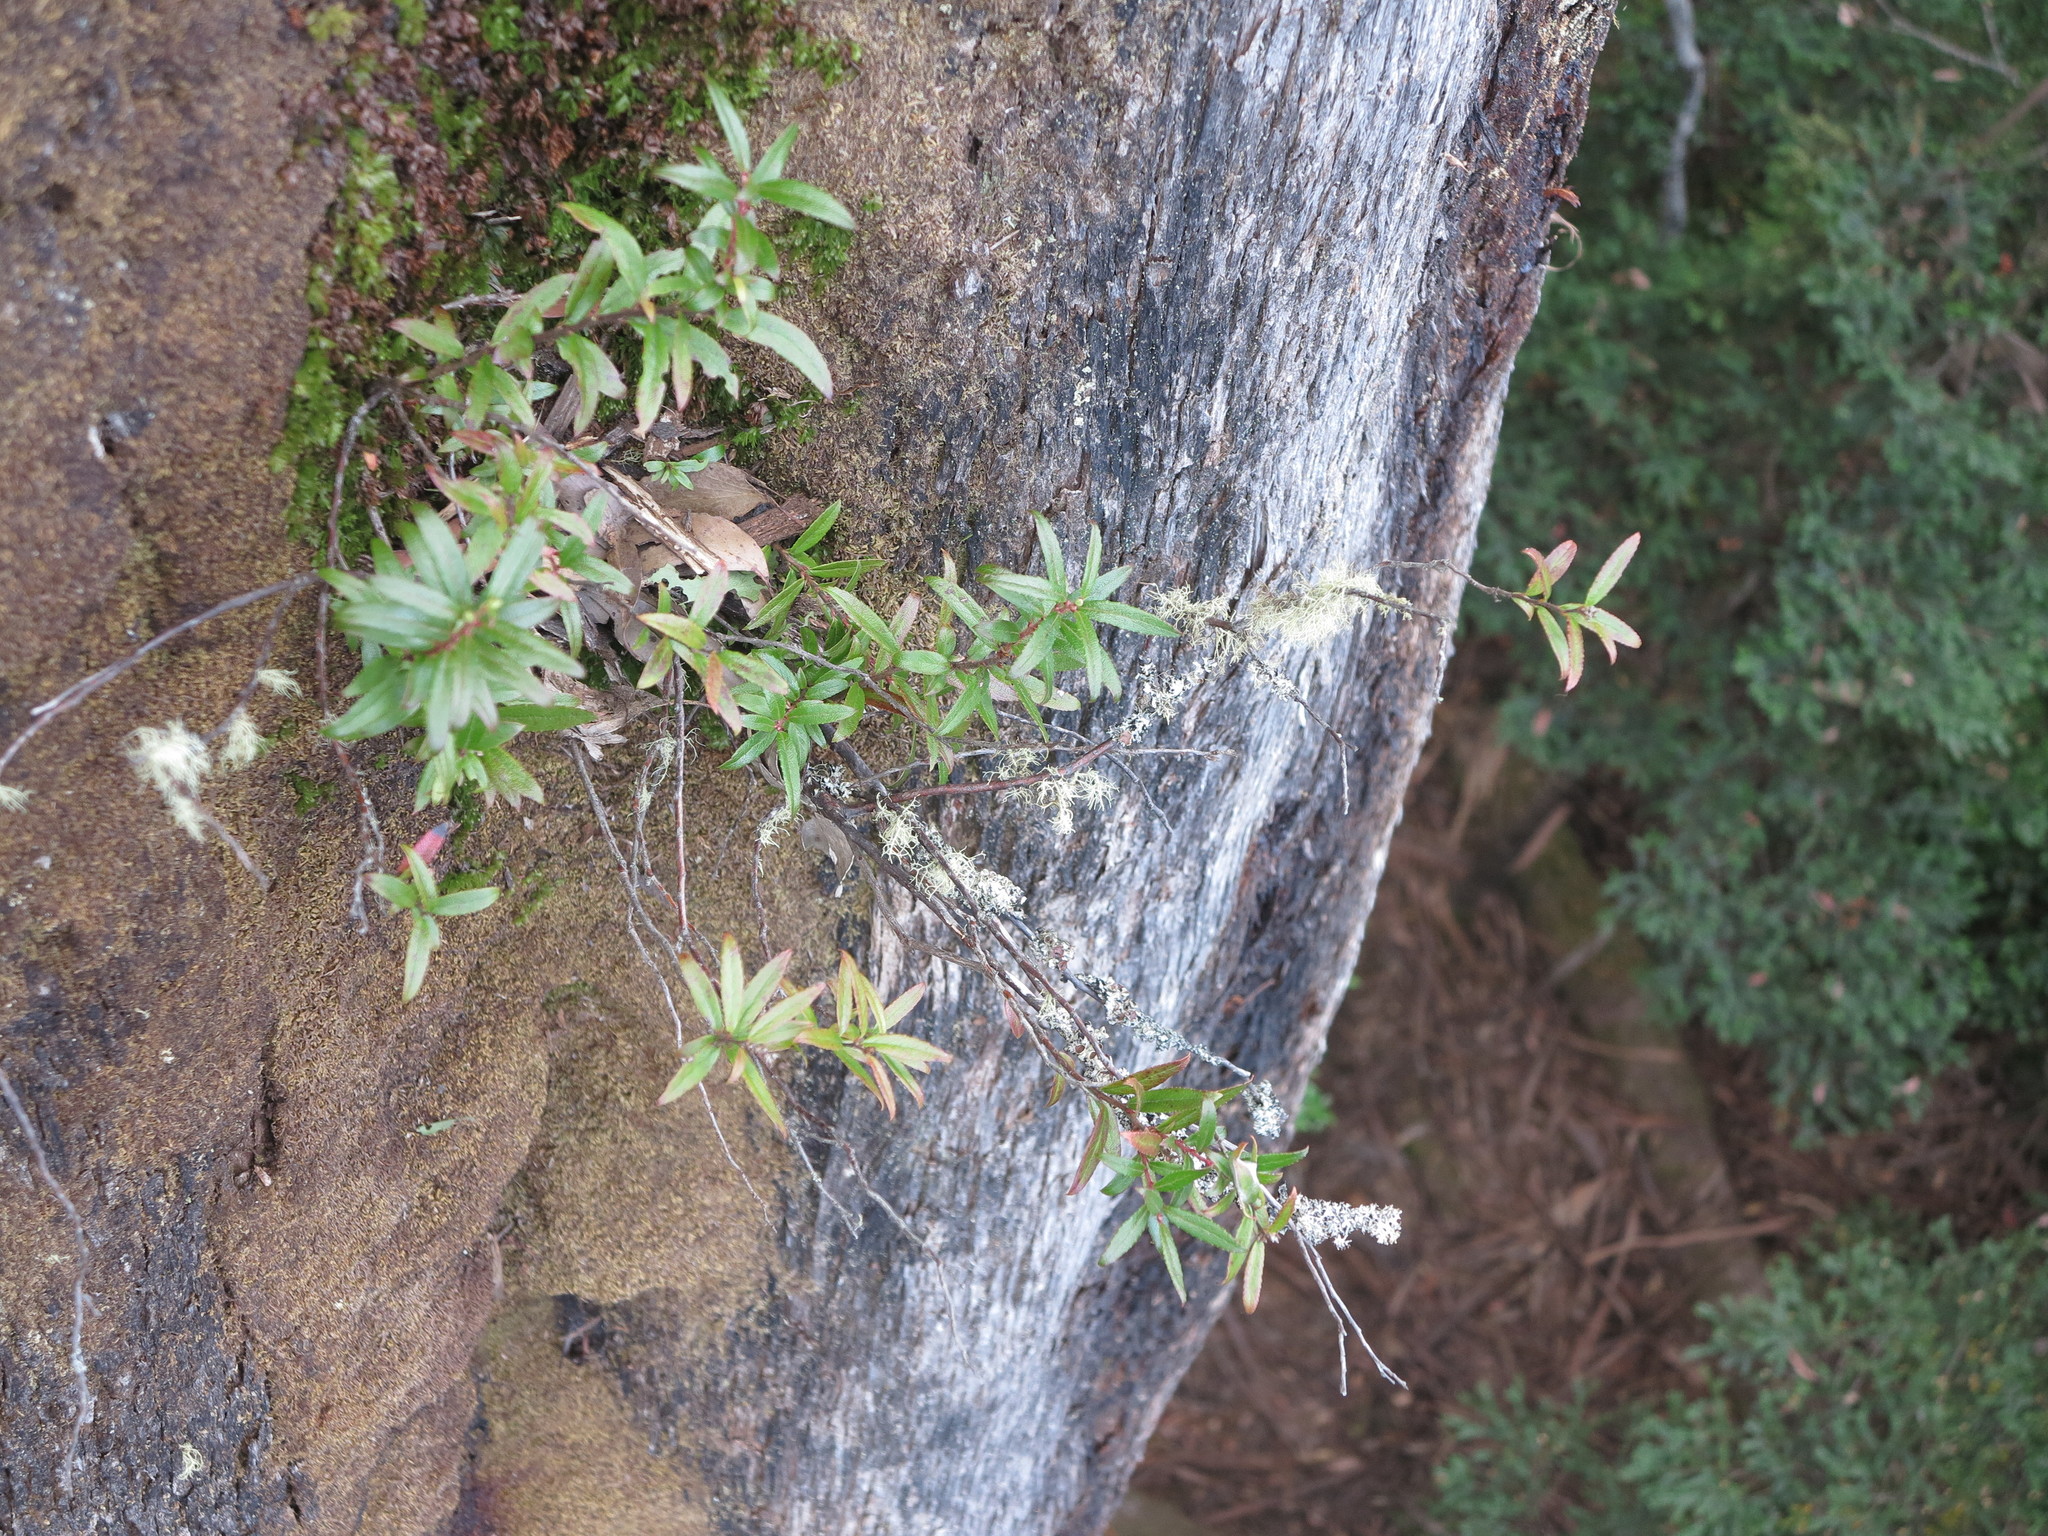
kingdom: Plantae
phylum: Tracheophyta
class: Magnoliopsida
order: Ericales
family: Ericaceae
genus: Gaultheria
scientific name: Gaultheria hispida
